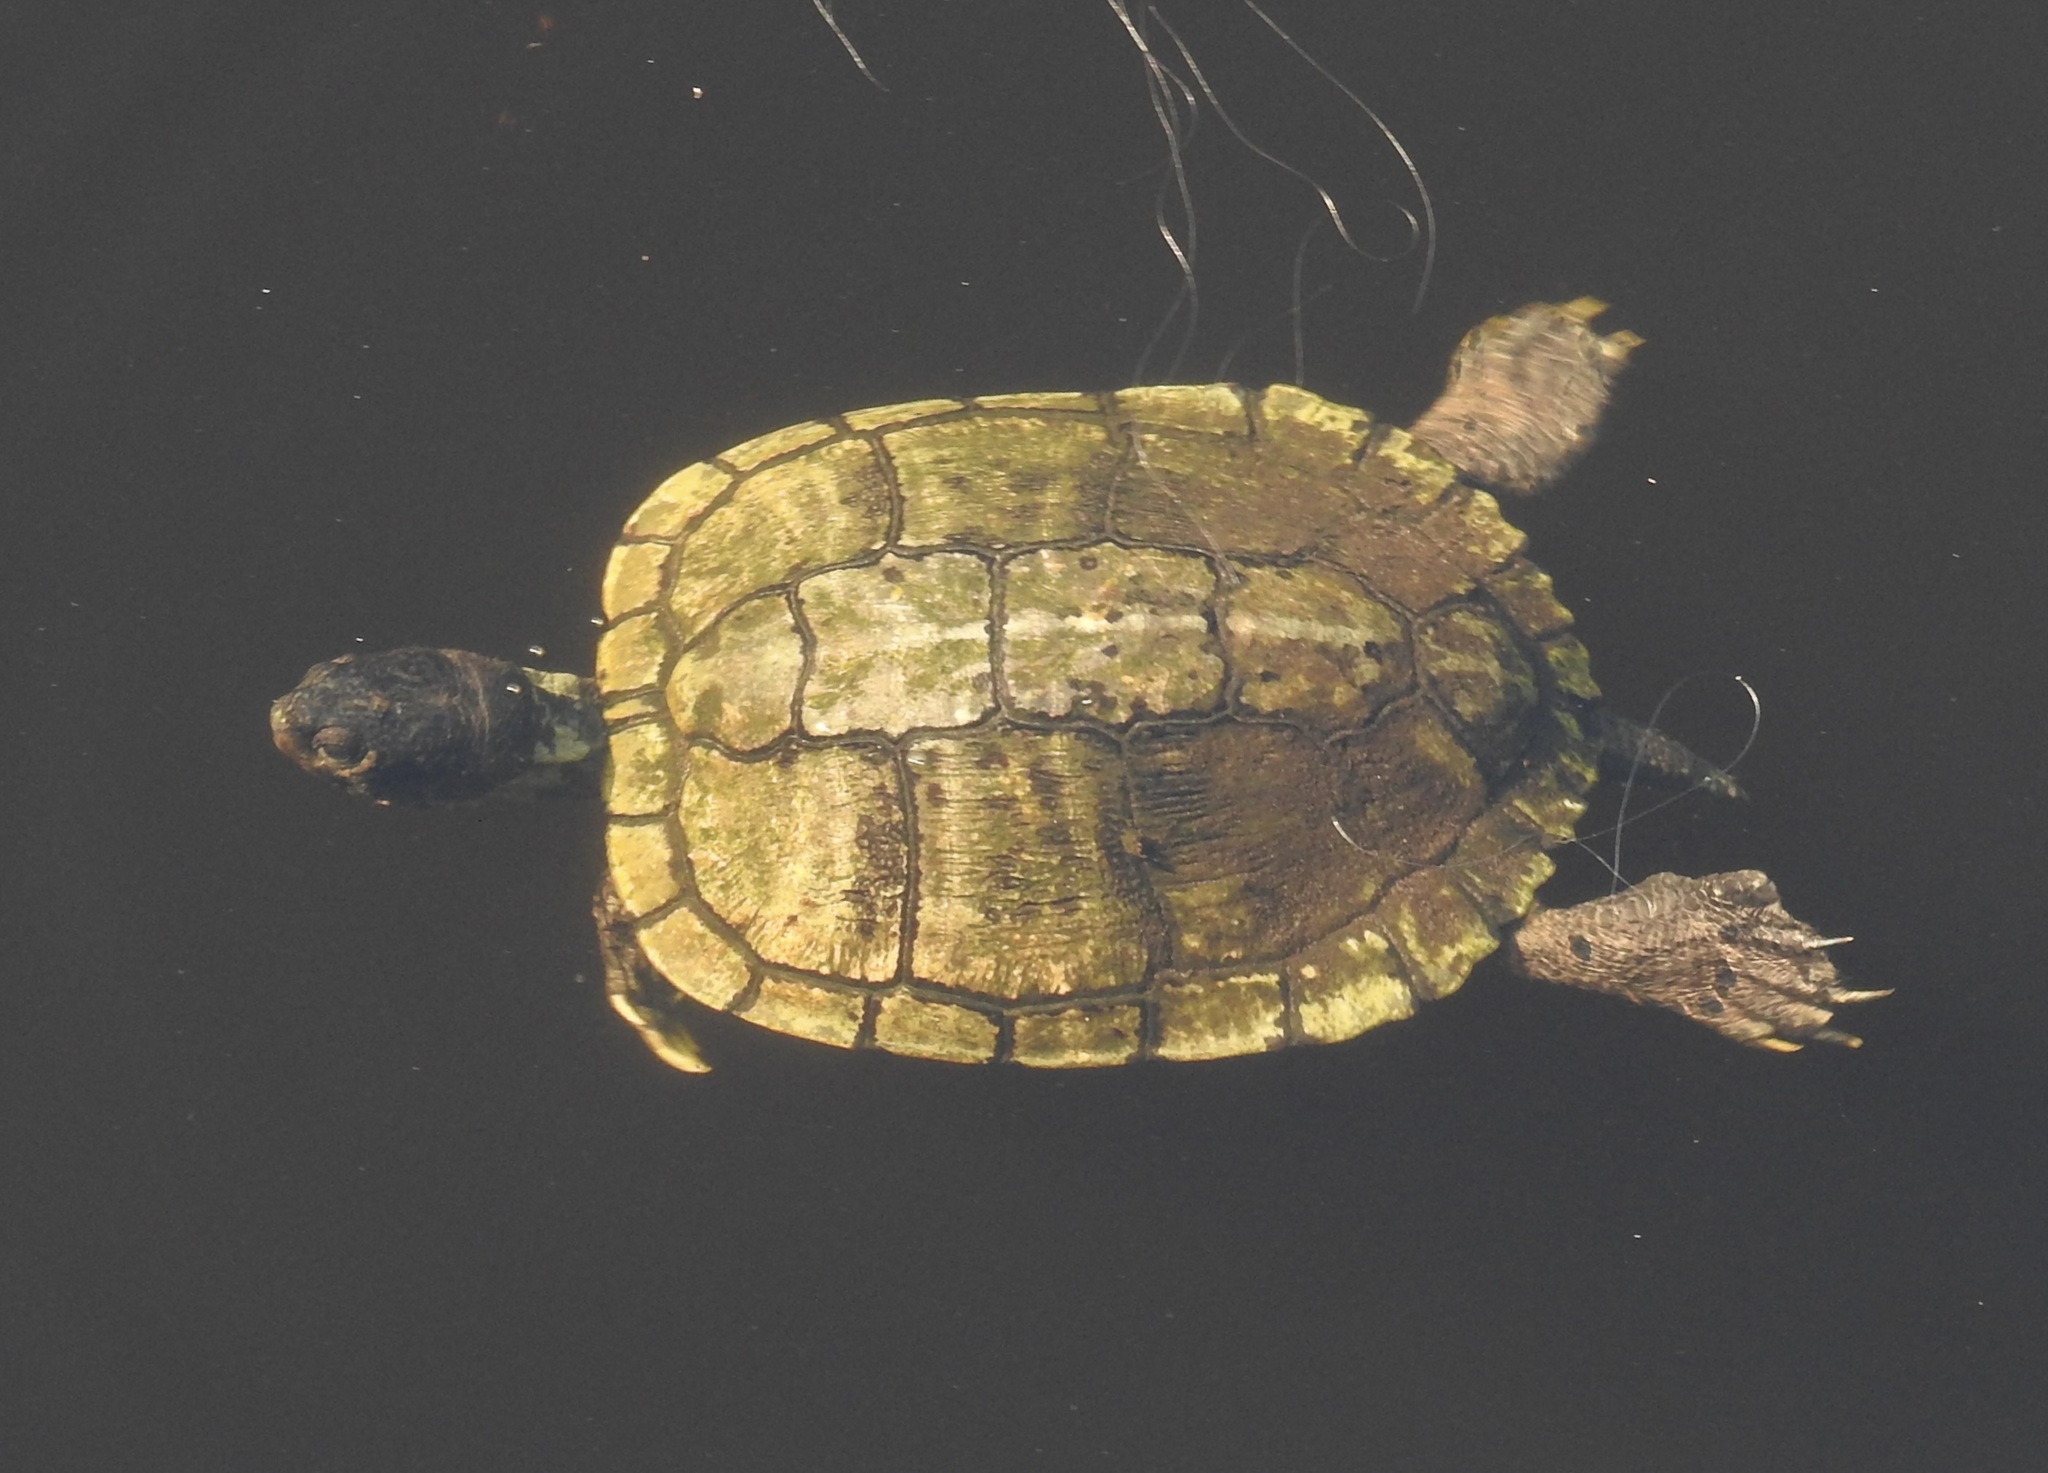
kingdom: Animalia
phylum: Chordata
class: Testudines
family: Emydidae
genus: Trachemys
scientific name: Trachemys scripta
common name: Slider
